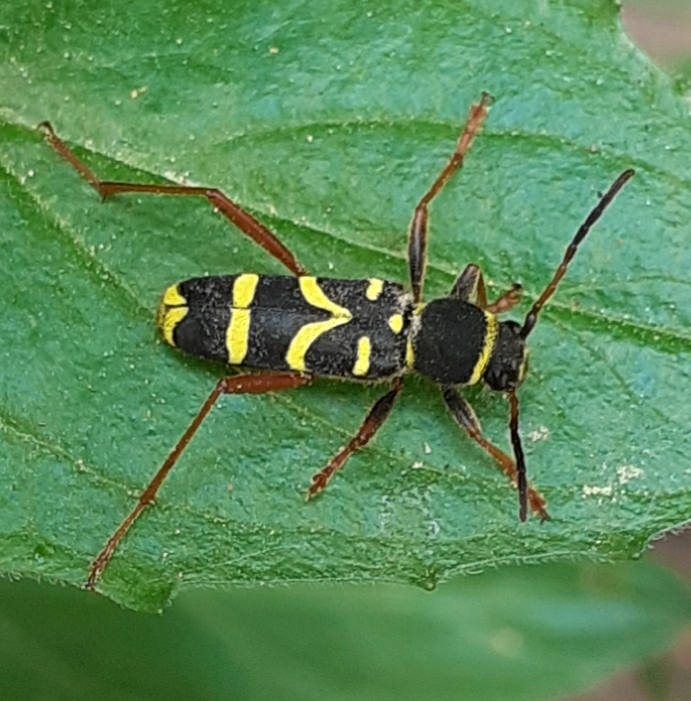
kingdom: Animalia
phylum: Arthropoda
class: Insecta
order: Coleoptera
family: Cerambycidae
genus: Clytus
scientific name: Clytus arietis
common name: Wasp beetle
